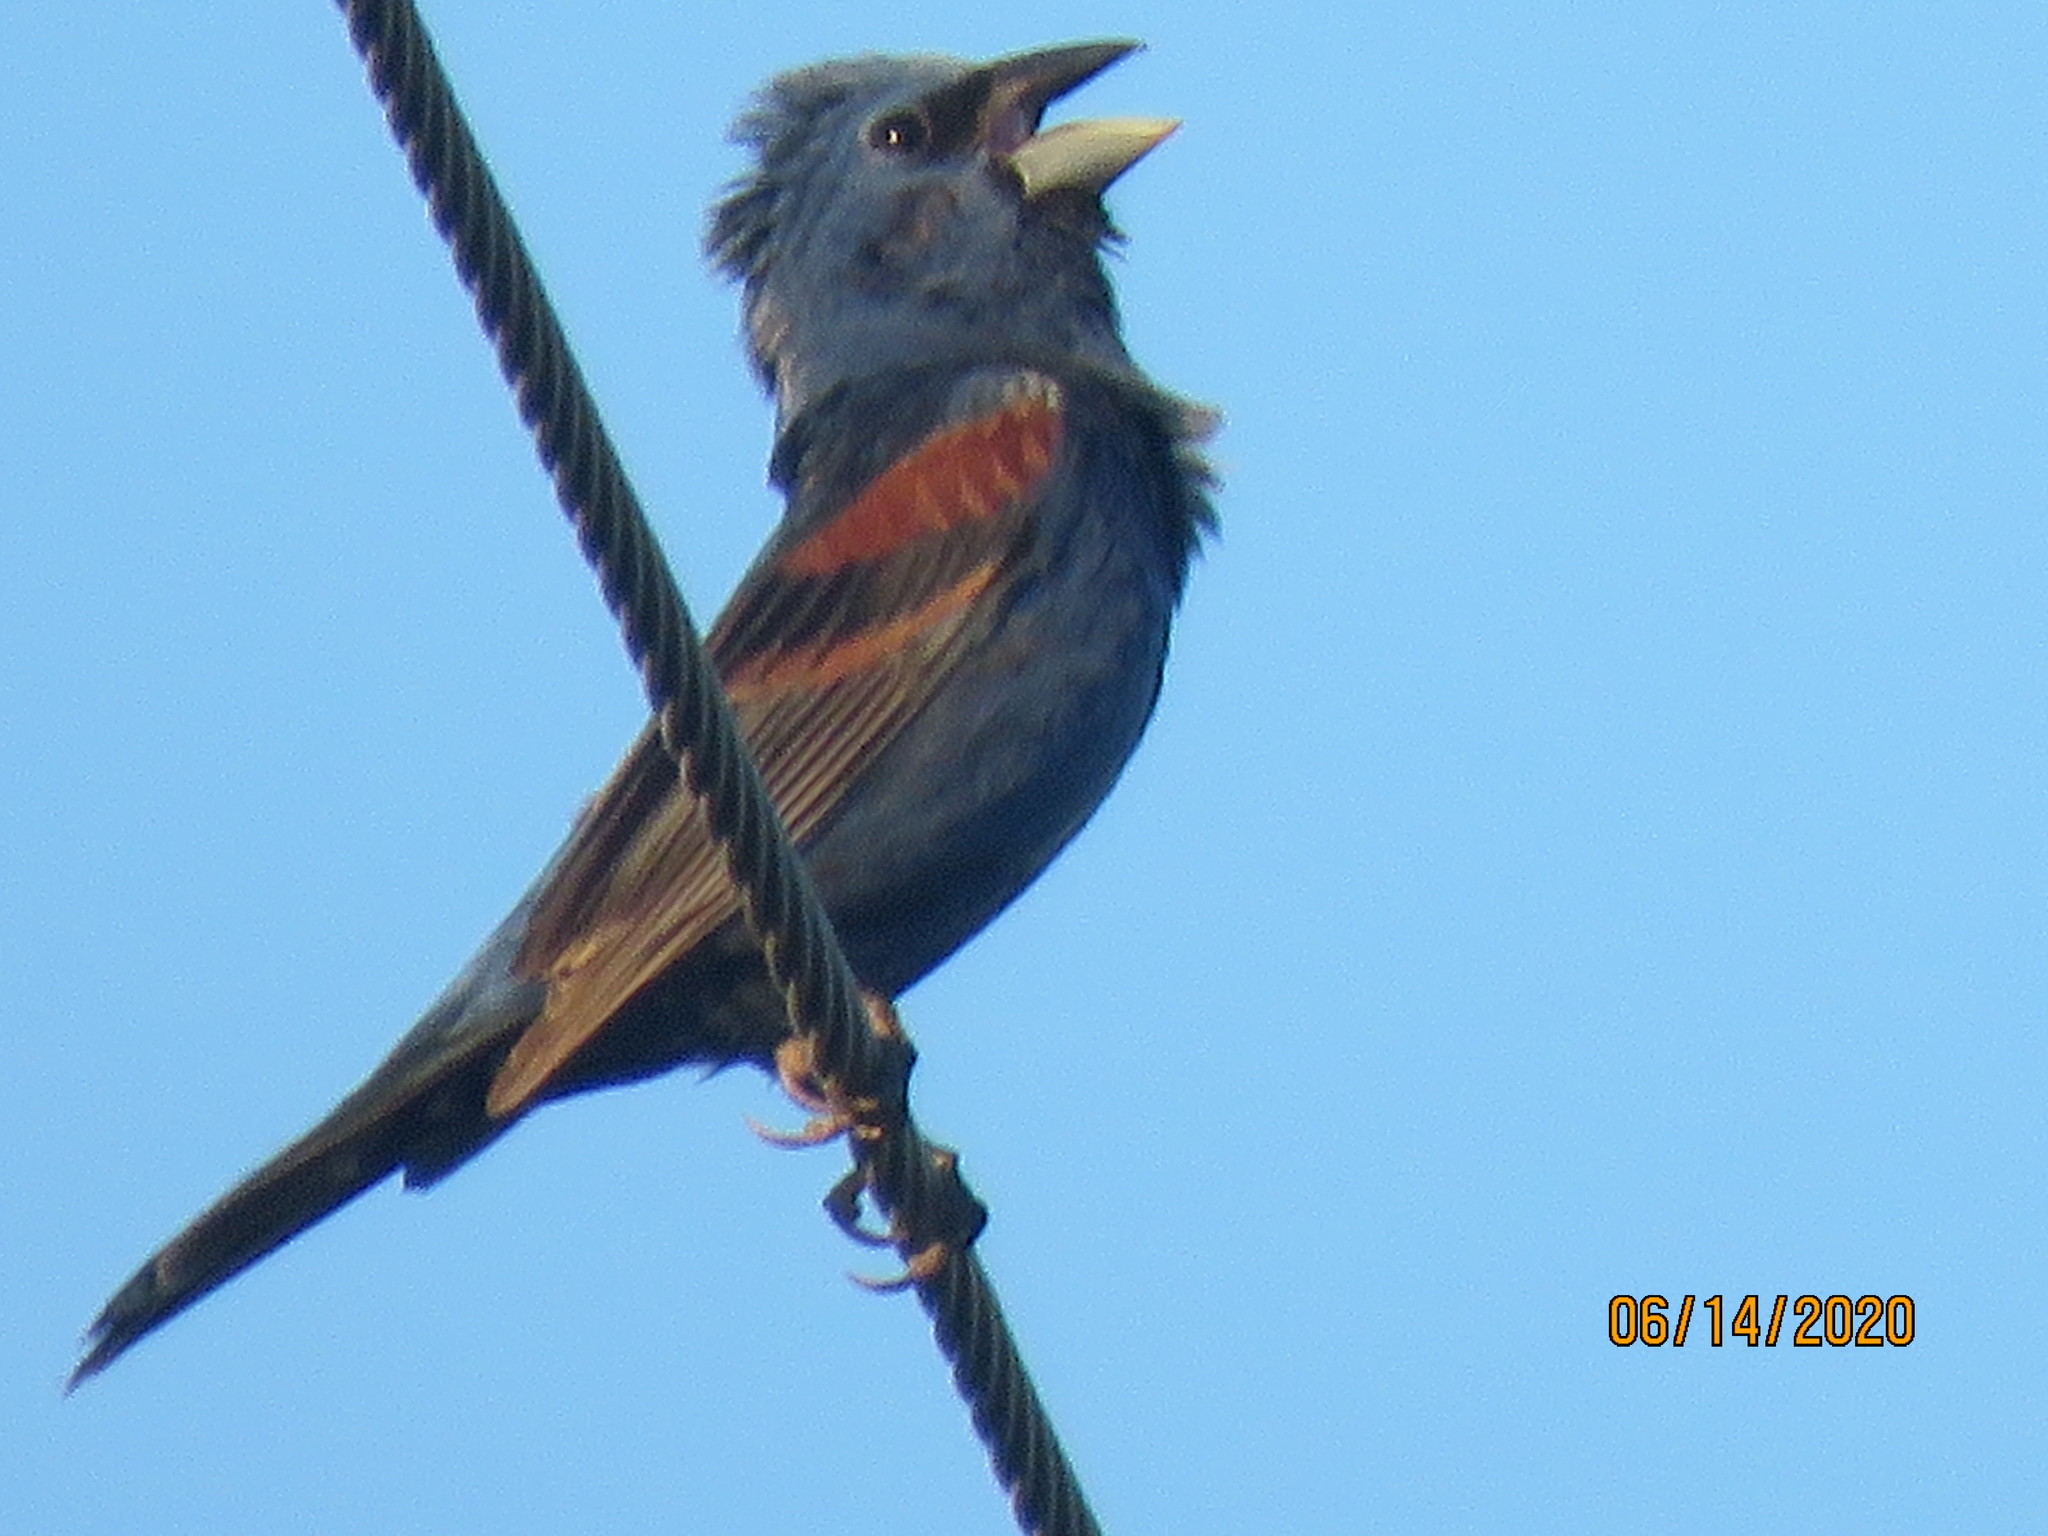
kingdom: Animalia
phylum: Chordata
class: Aves
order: Passeriformes
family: Cardinalidae
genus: Passerina
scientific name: Passerina caerulea
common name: Blue grosbeak
